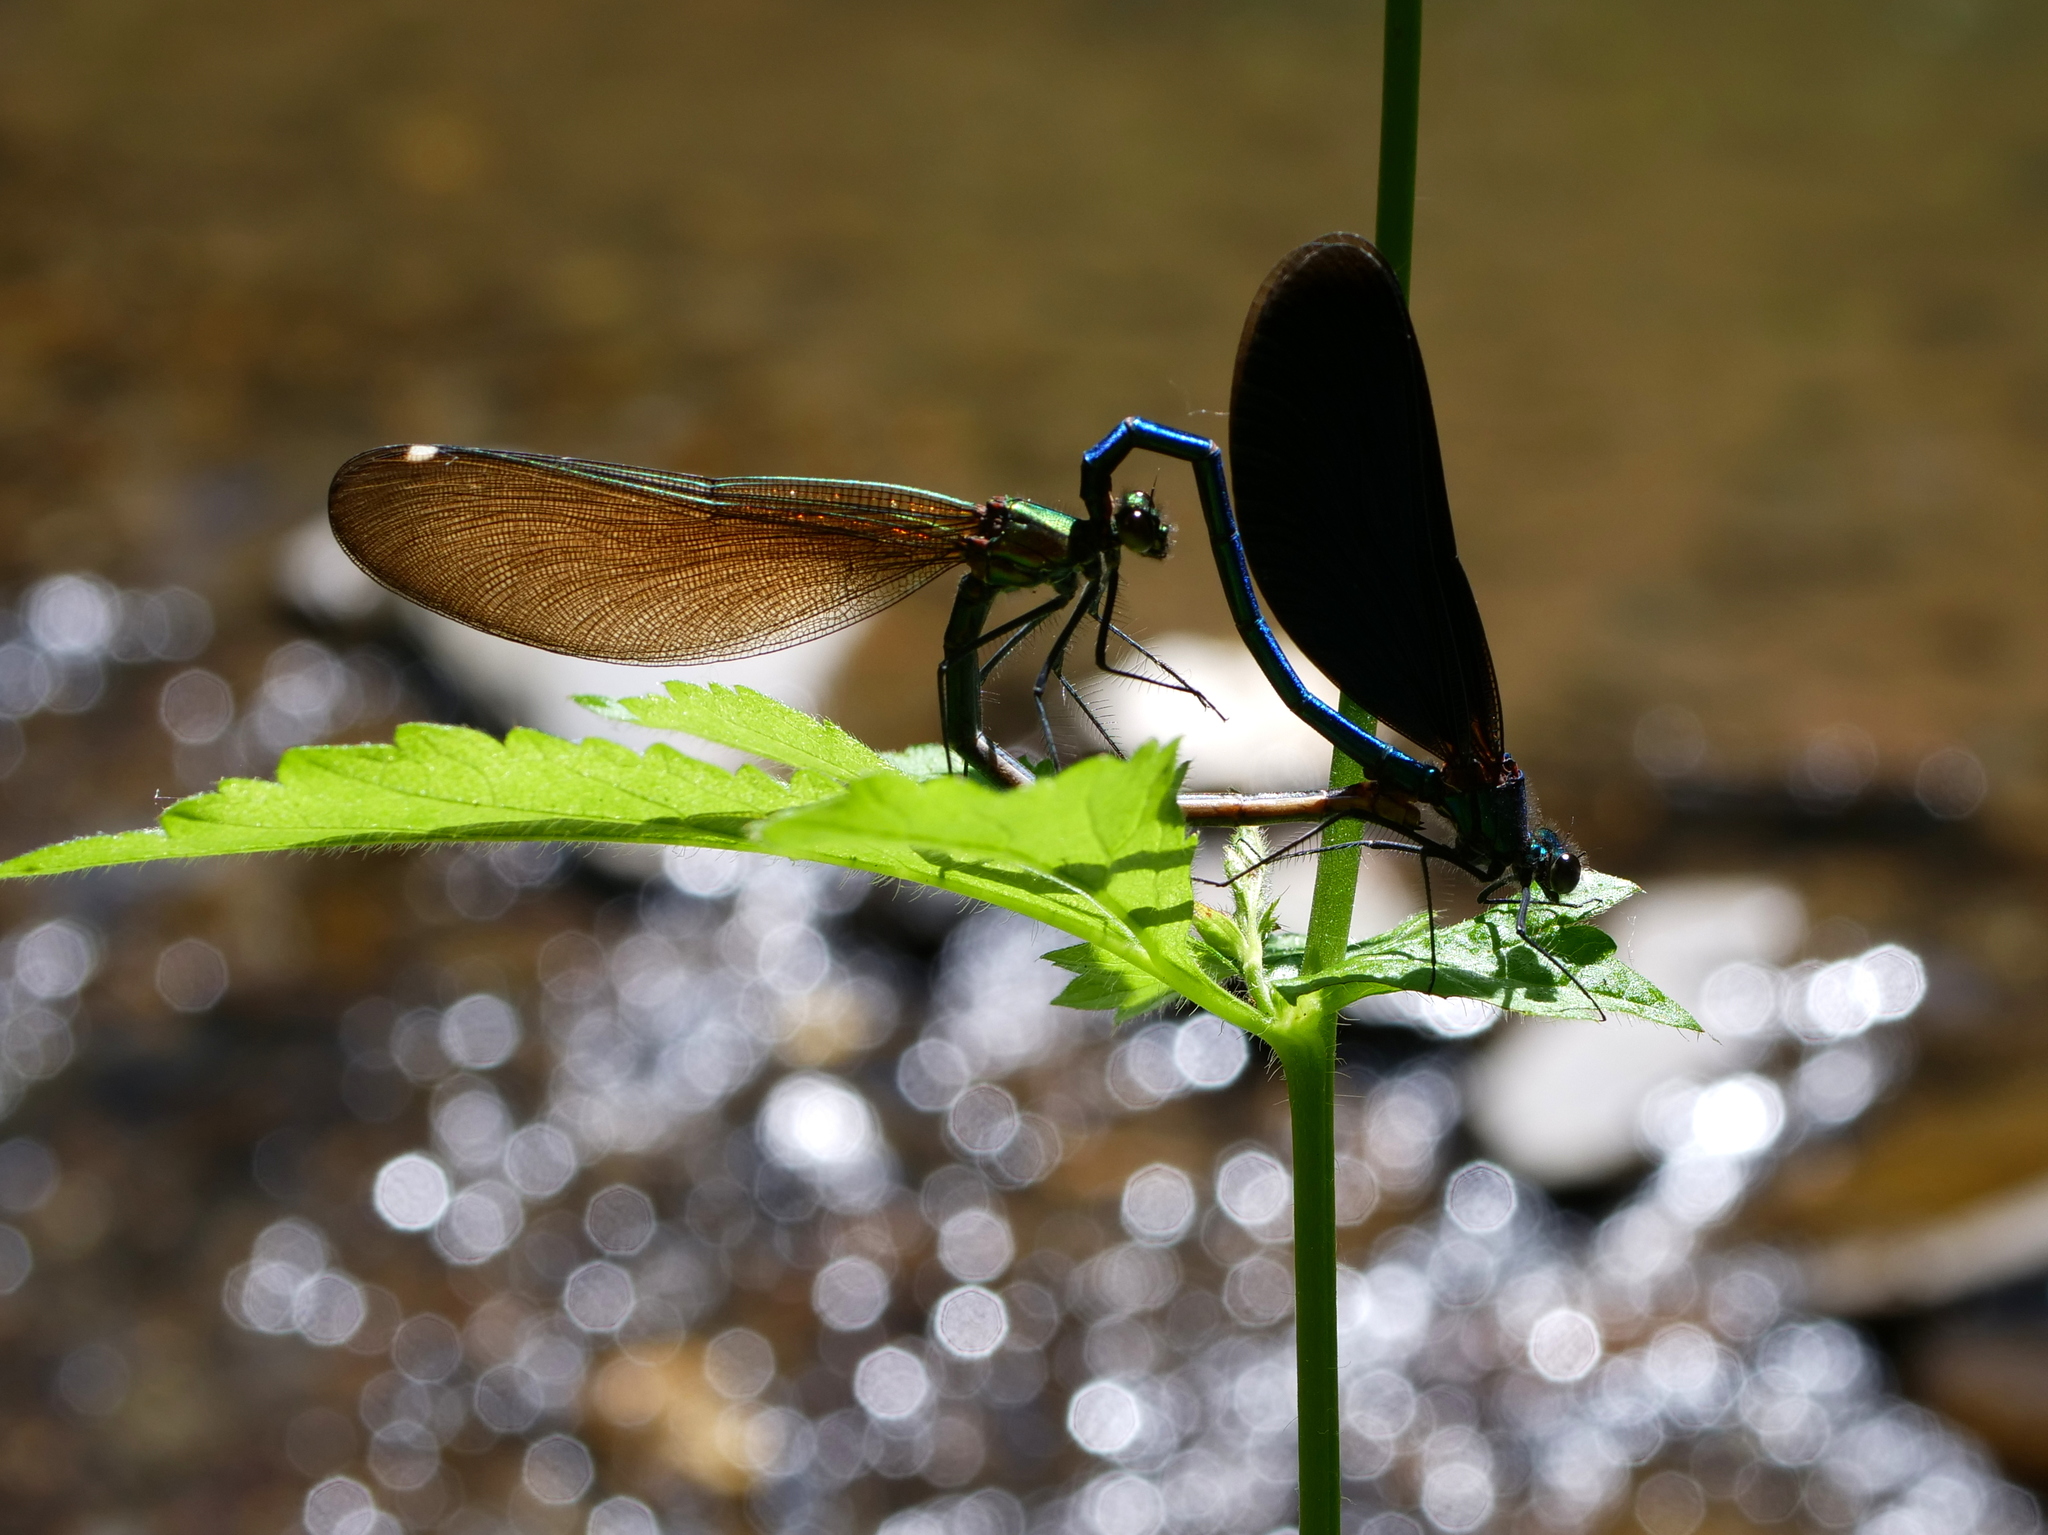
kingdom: Animalia
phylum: Arthropoda
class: Insecta
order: Odonata
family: Calopterygidae
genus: Calopteryx
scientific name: Calopteryx virgo
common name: Beautiful demoiselle
